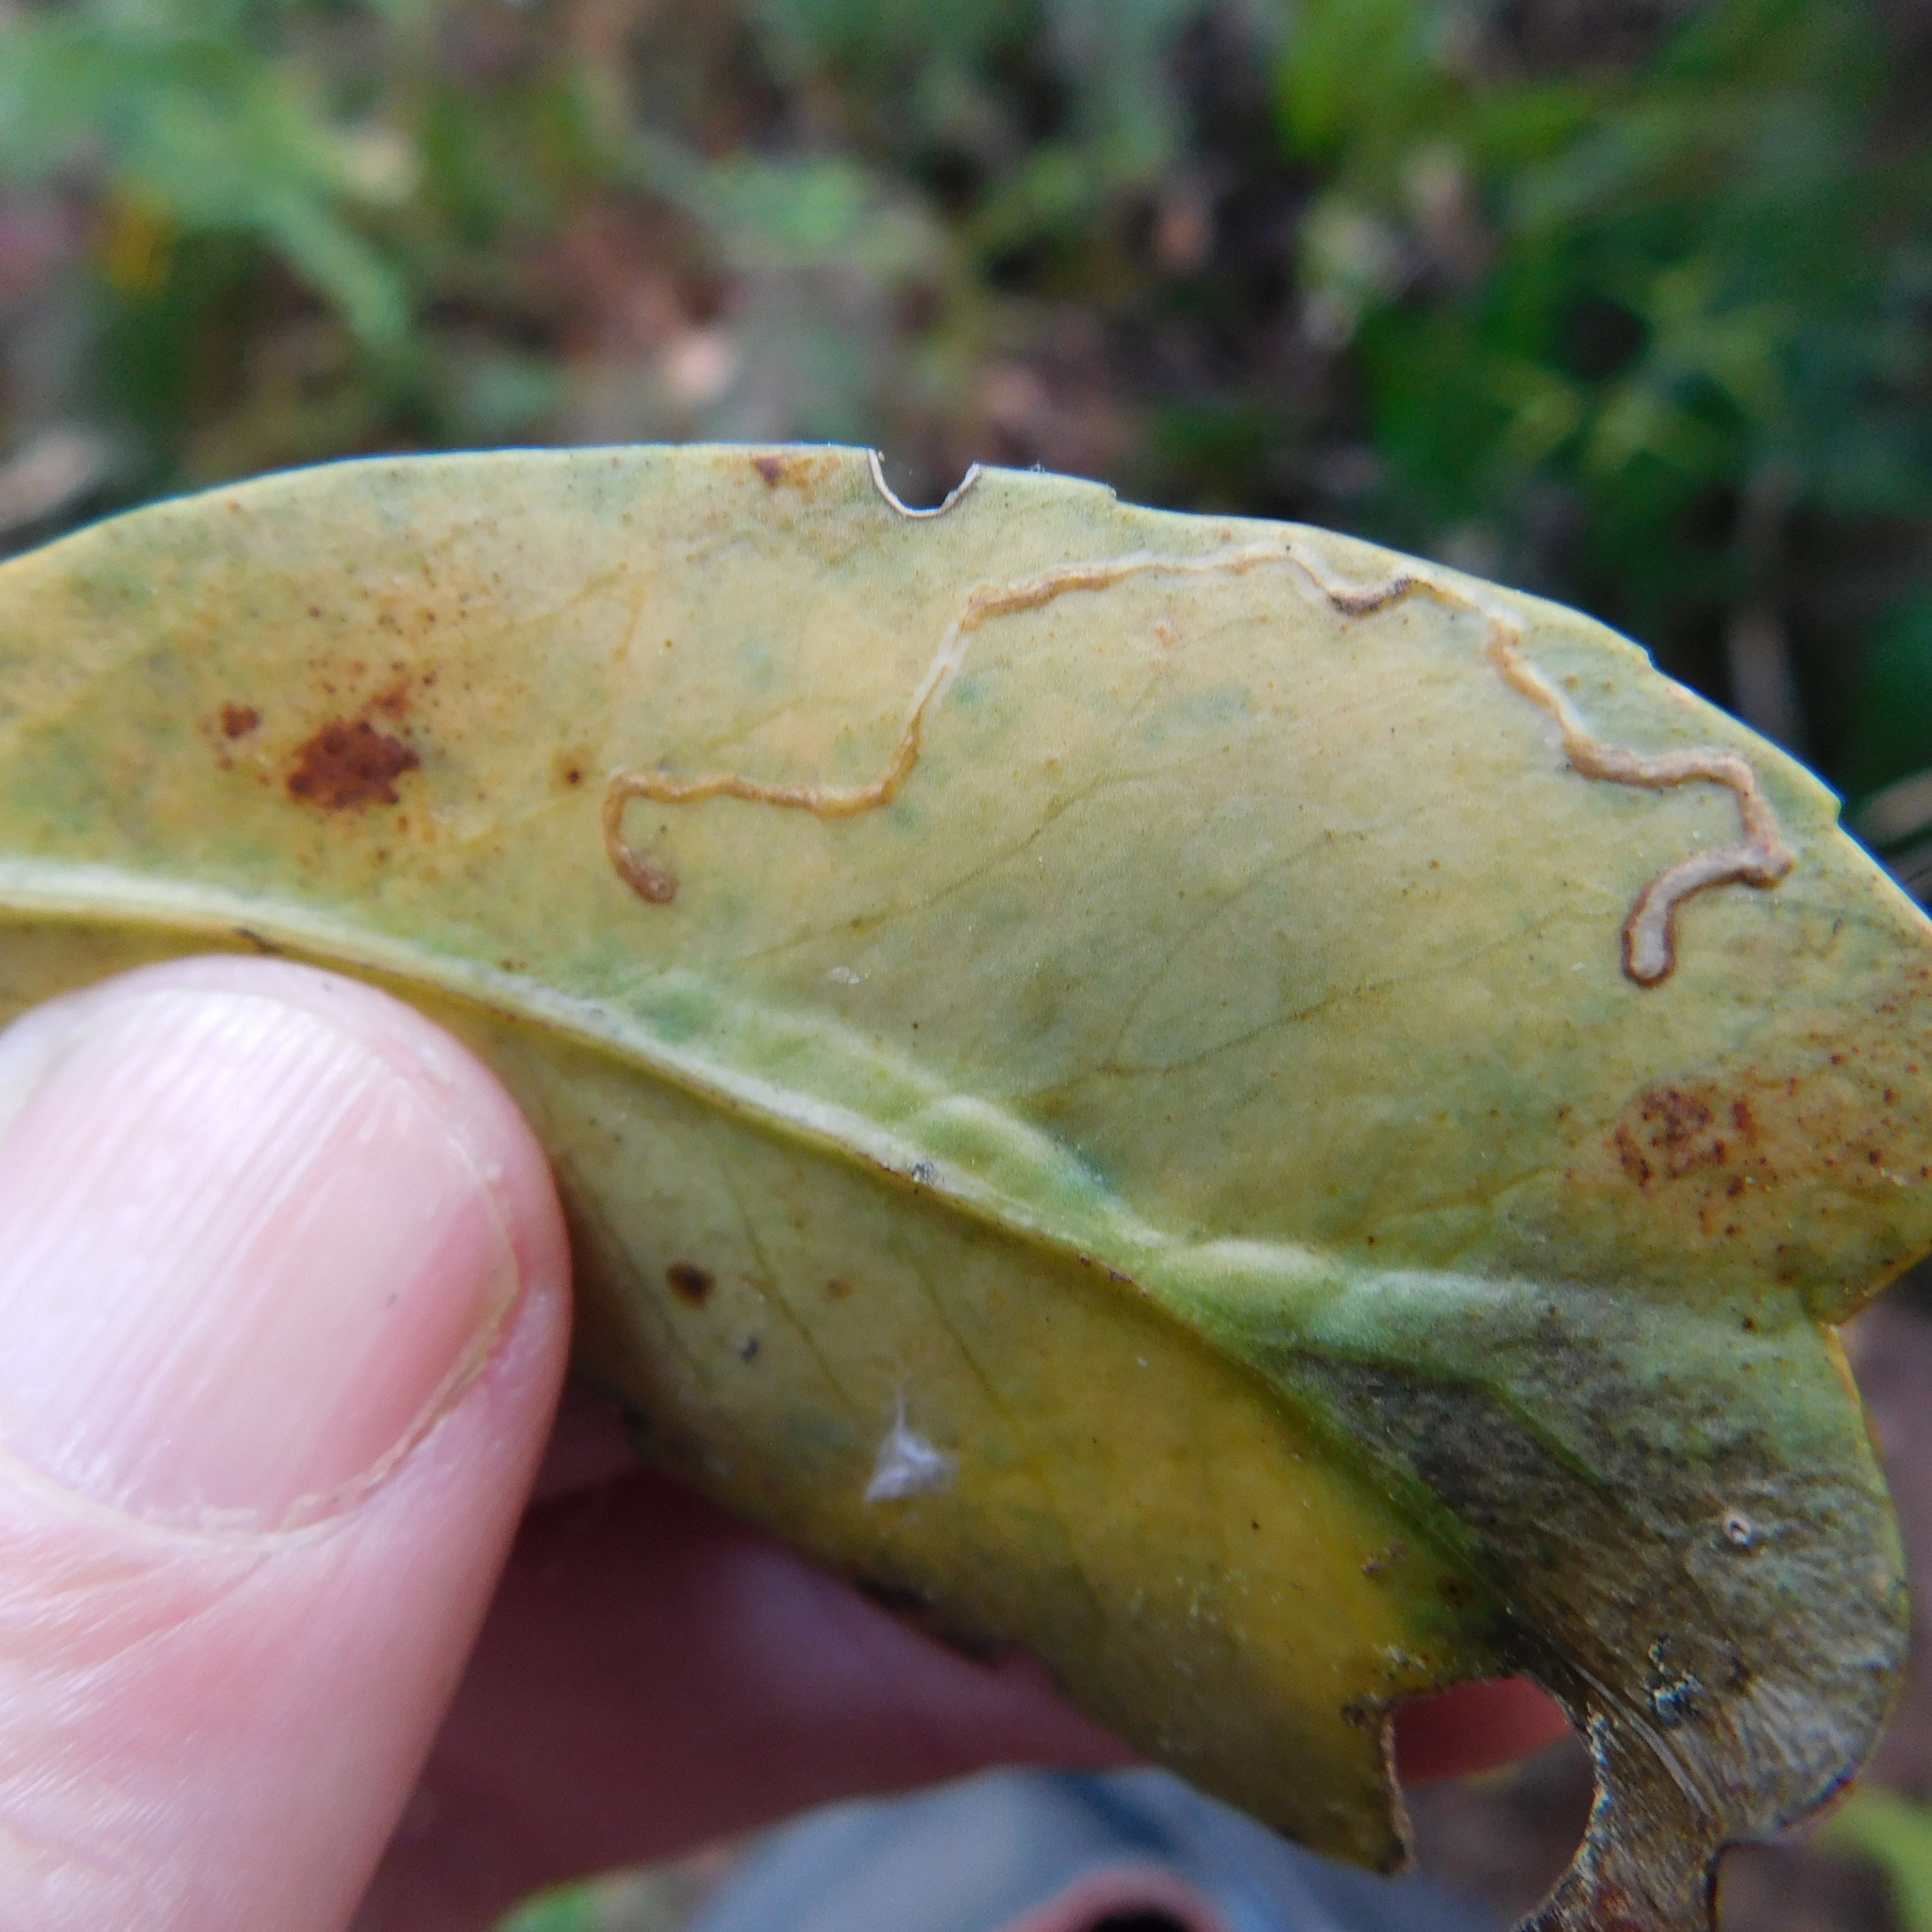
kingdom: Animalia
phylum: Arthropoda
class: Insecta
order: Lepidoptera
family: Gracillariidae
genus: Eumetriochroa
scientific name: Eumetriochroa panacitorsens
